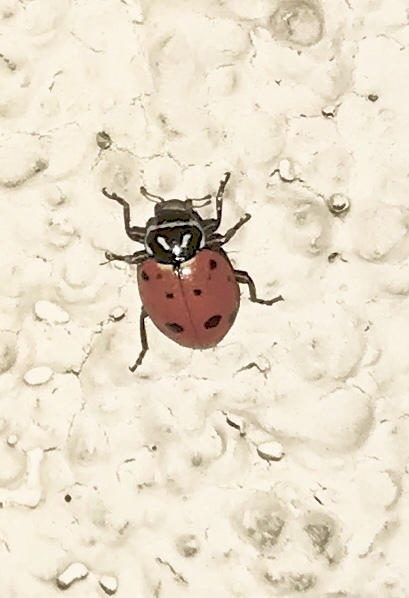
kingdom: Animalia
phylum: Arthropoda
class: Insecta
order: Coleoptera
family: Coccinellidae
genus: Hippodamia
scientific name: Hippodamia convergens
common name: Convergent lady beetle
